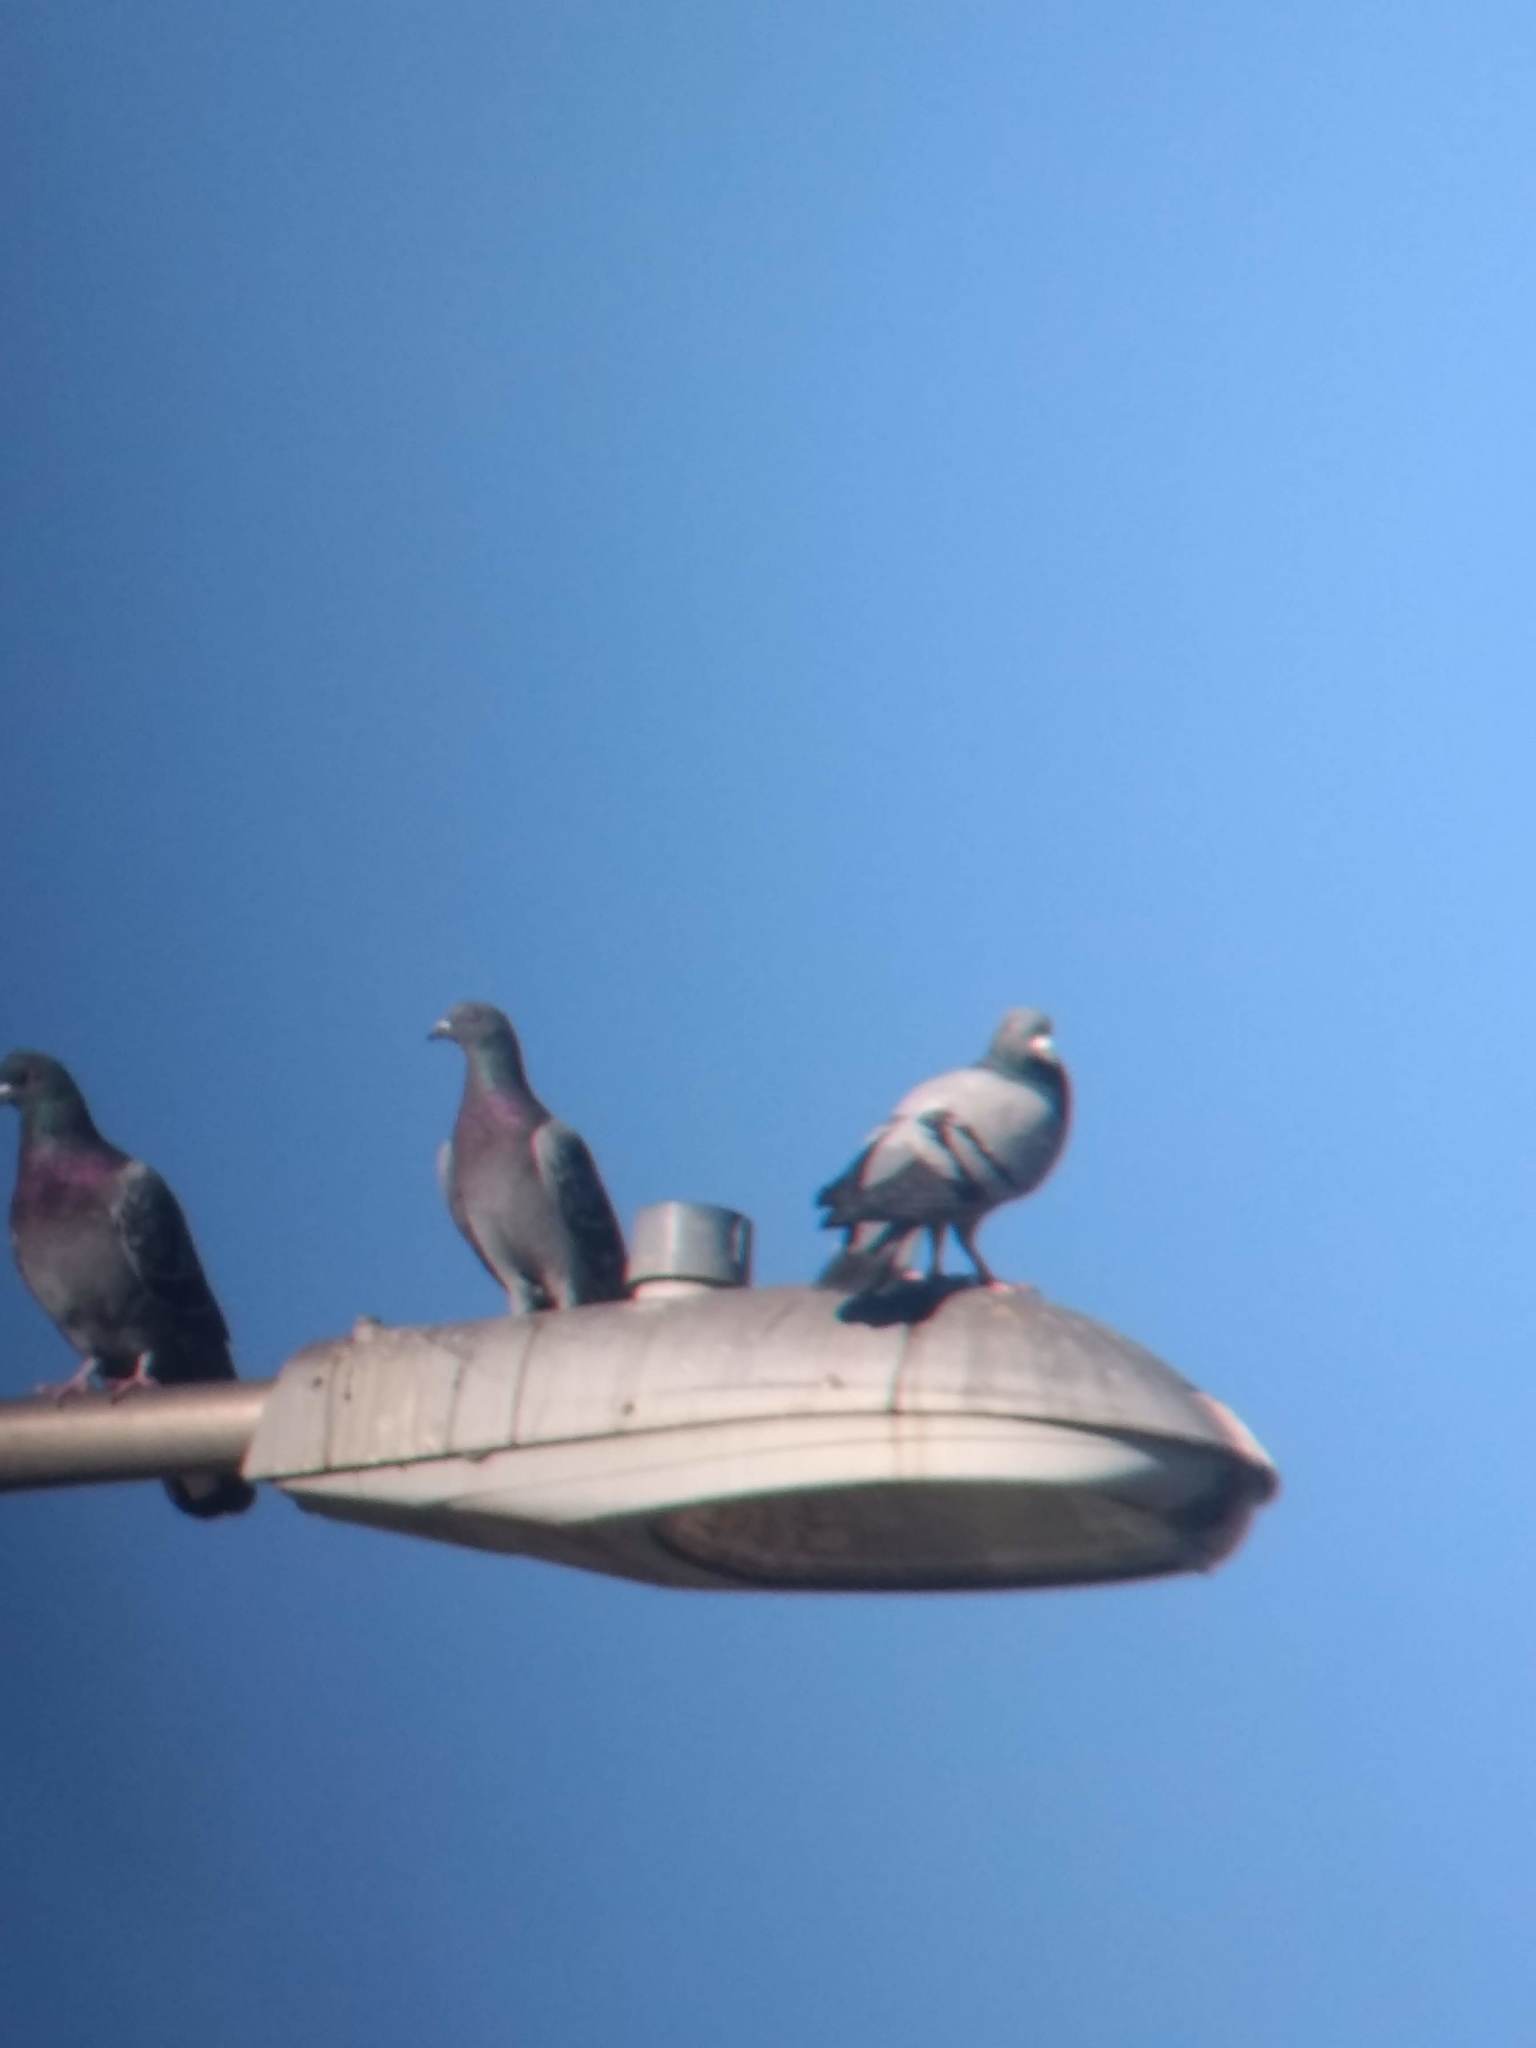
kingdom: Animalia
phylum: Chordata
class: Aves
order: Columbiformes
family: Columbidae
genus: Columba
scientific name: Columba livia
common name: Rock pigeon
